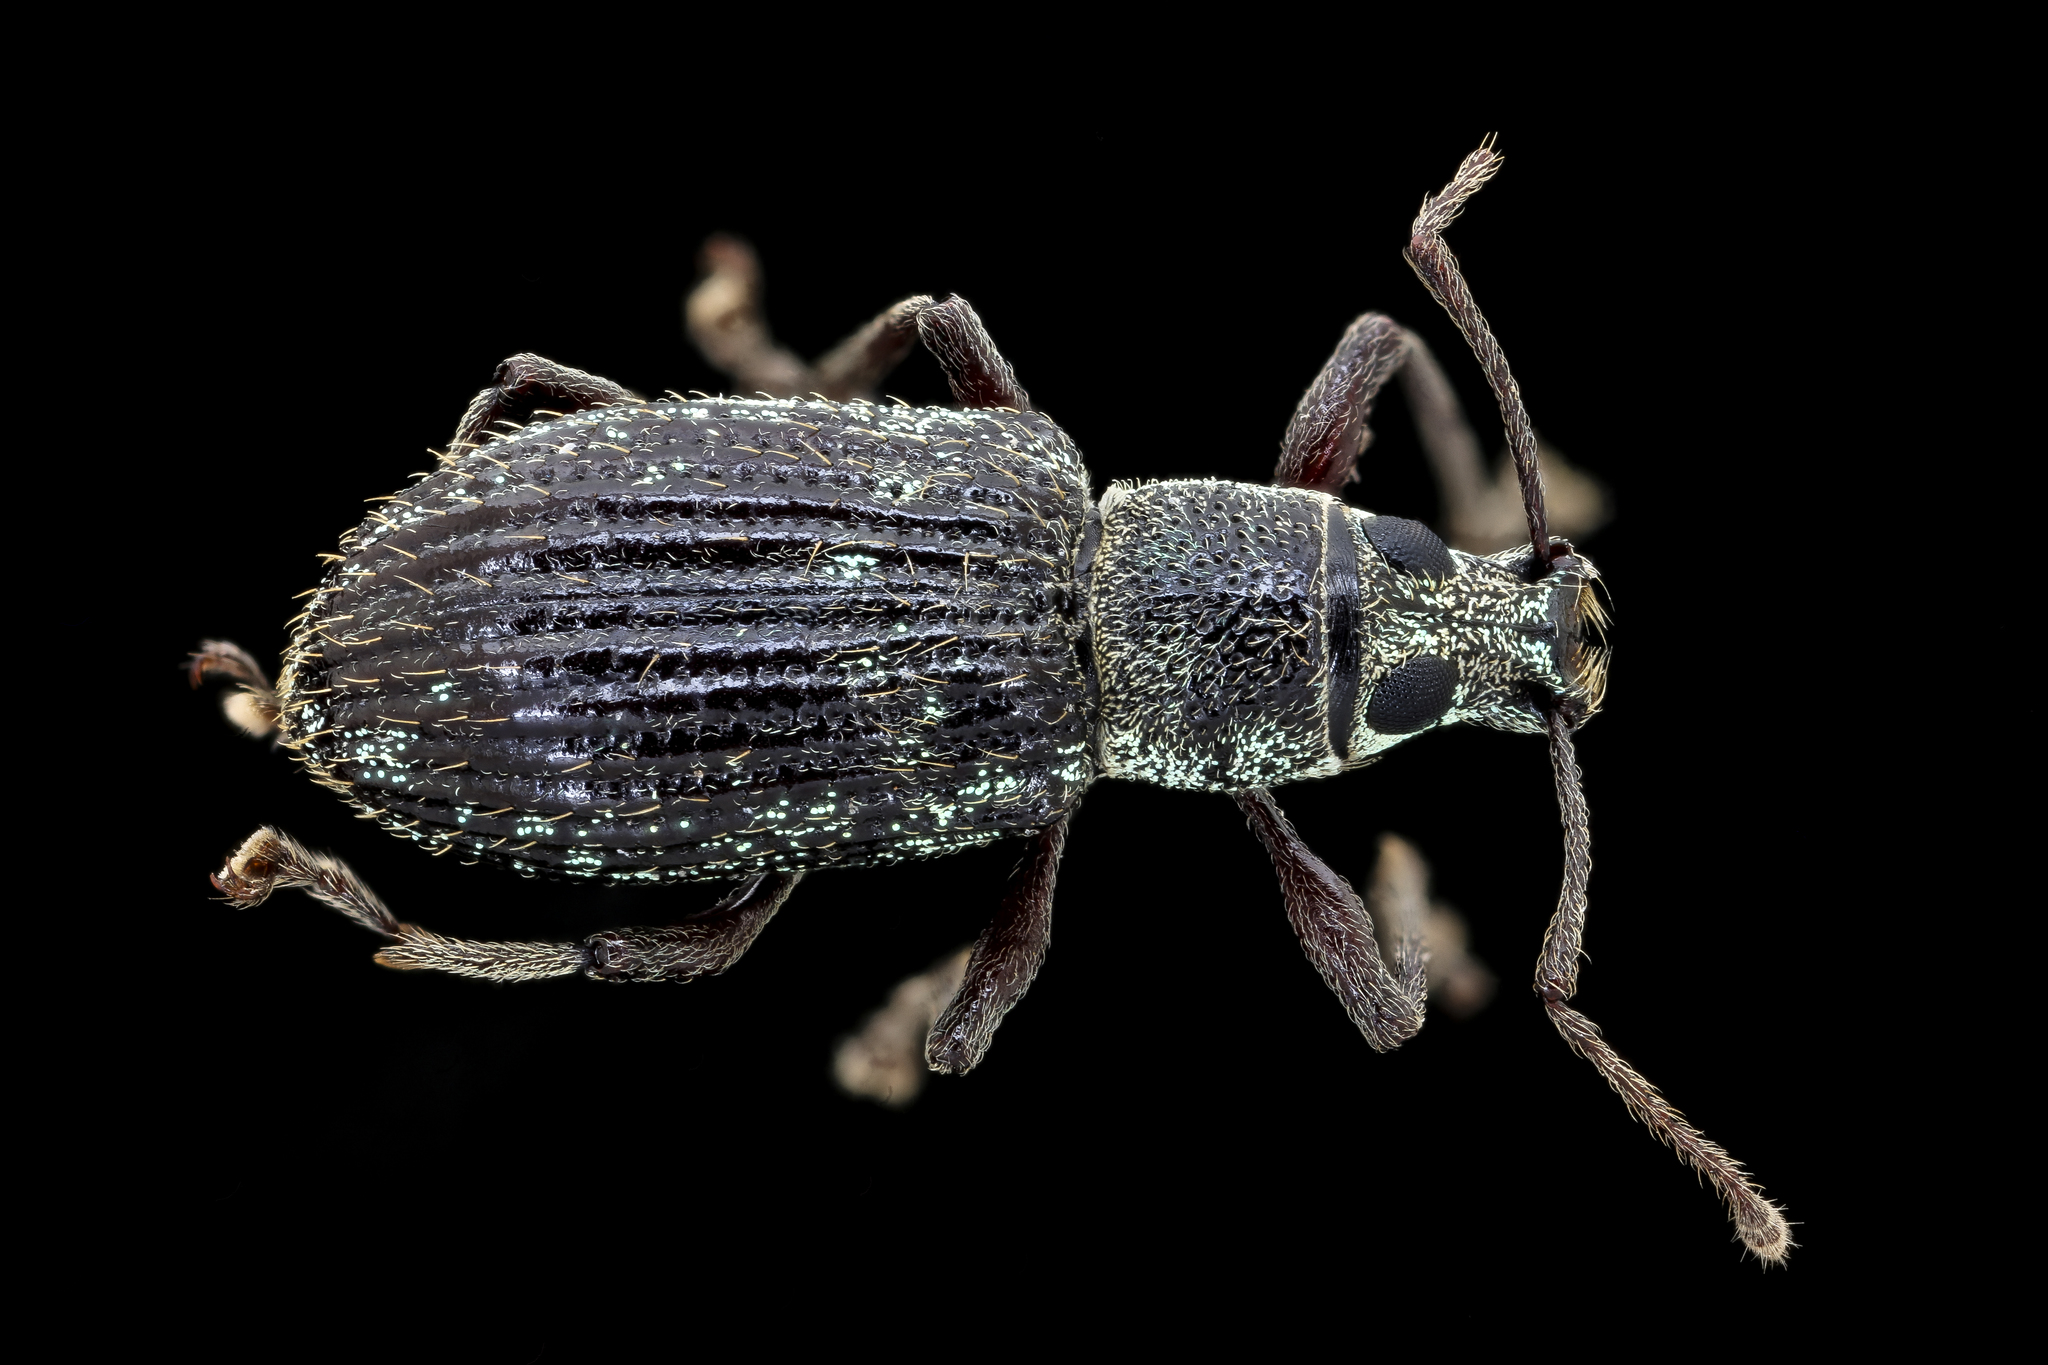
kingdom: Animalia
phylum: Arthropoda
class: Insecta
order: Coleoptera
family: Curculionidae
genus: Cyrtepistomus
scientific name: Cyrtepistomus castaneus
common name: Weevil
